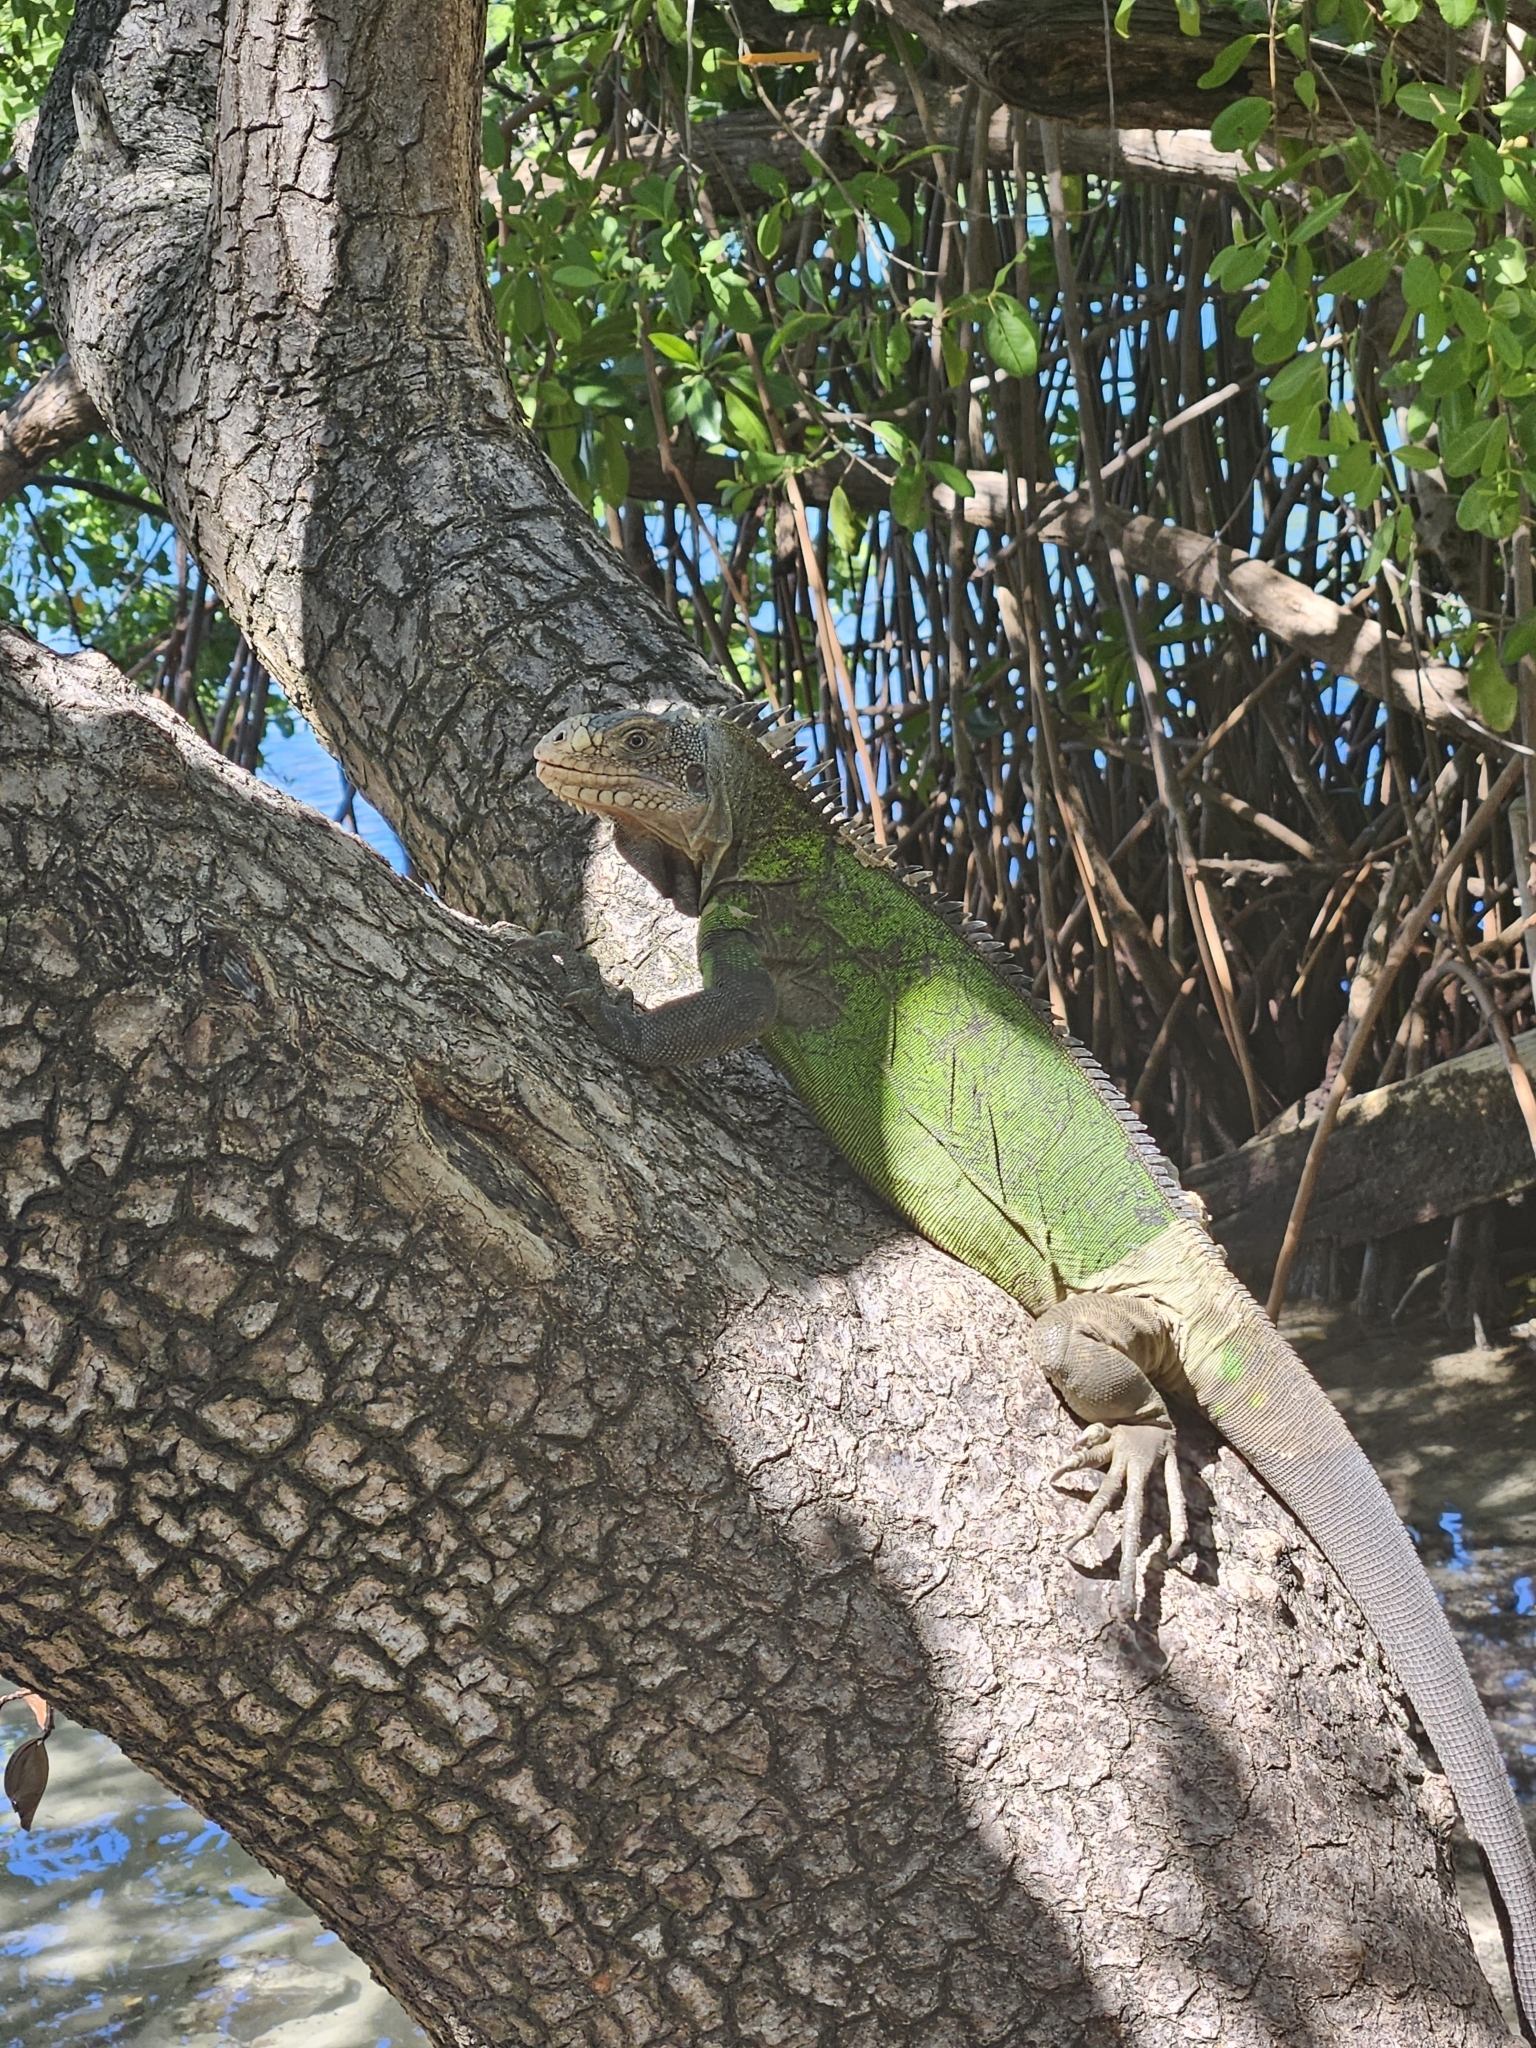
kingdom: Animalia
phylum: Chordata
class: Squamata
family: Iguanidae
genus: Iguana
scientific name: Iguana delicatissima
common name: West indian iguana
